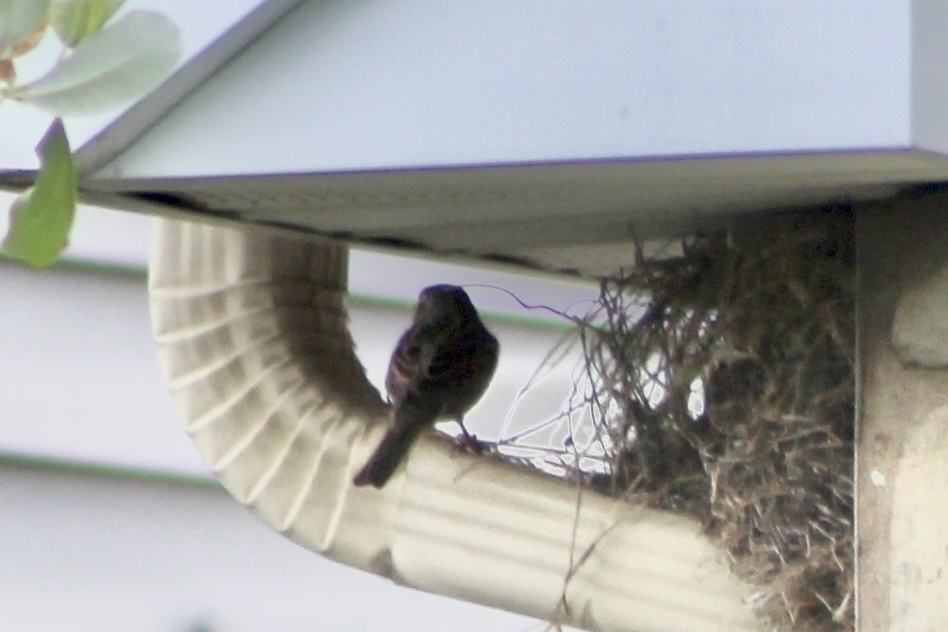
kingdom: Animalia
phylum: Chordata
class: Aves
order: Passeriformes
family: Passeridae
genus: Passer
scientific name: Passer domesticus
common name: House sparrow
